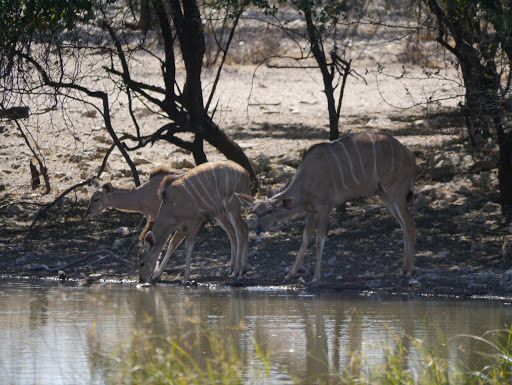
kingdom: Animalia
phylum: Chordata
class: Mammalia
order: Artiodactyla
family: Bovidae
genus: Tragelaphus
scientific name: Tragelaphus strepsiceros
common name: Greater kudu
